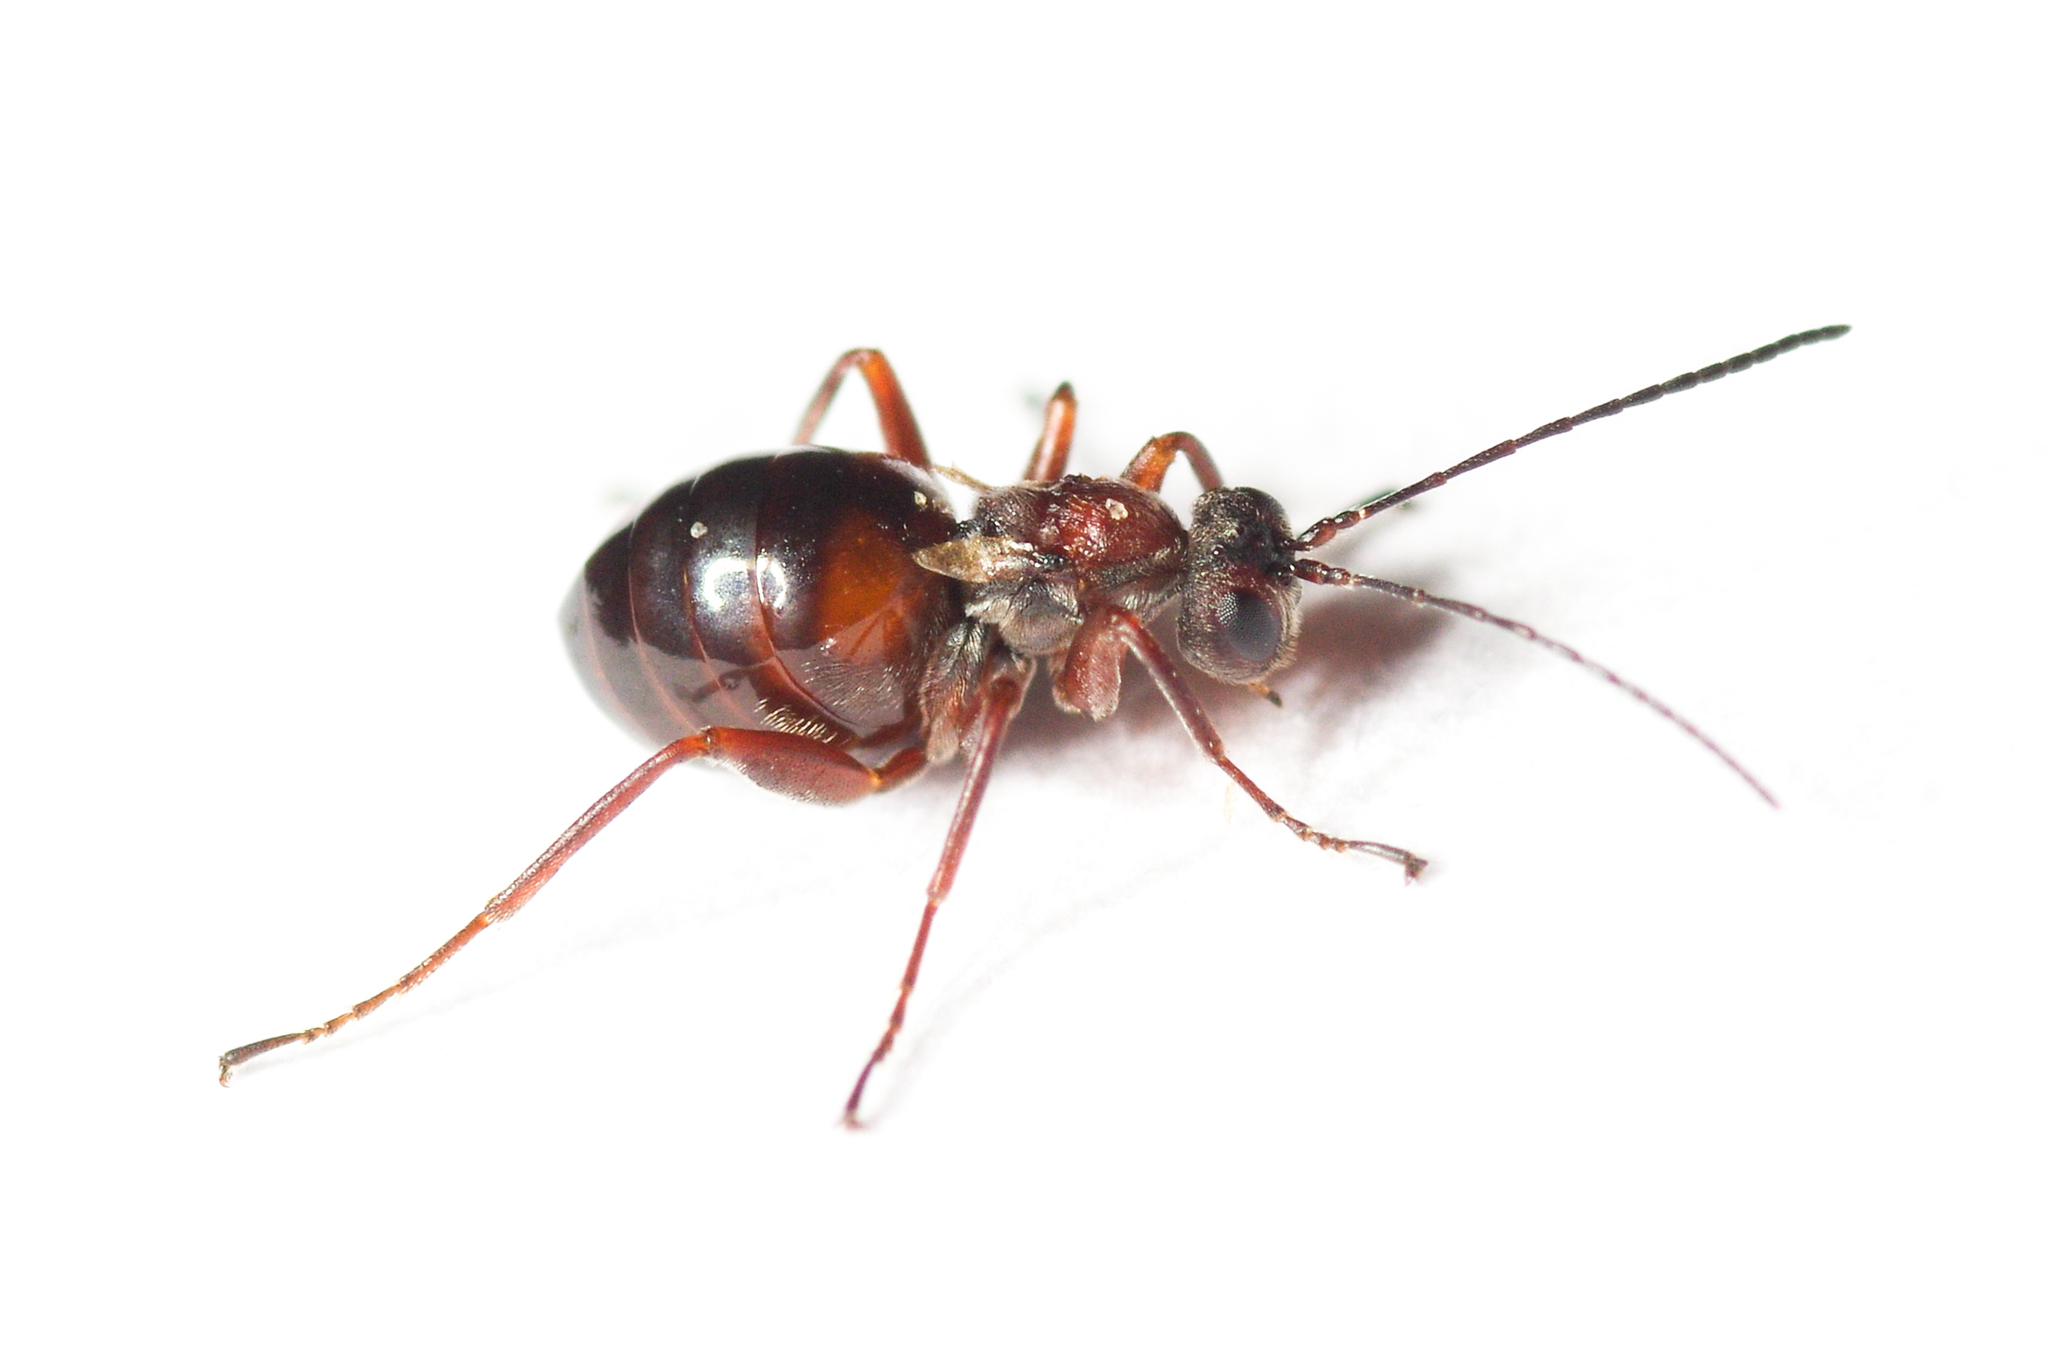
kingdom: Animalia
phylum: Arthropoda
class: Insecta
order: Hymenoptera
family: Cynipidae
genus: Acraspis
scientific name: Acraspis erinacei
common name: Hedgehog gall wasp
